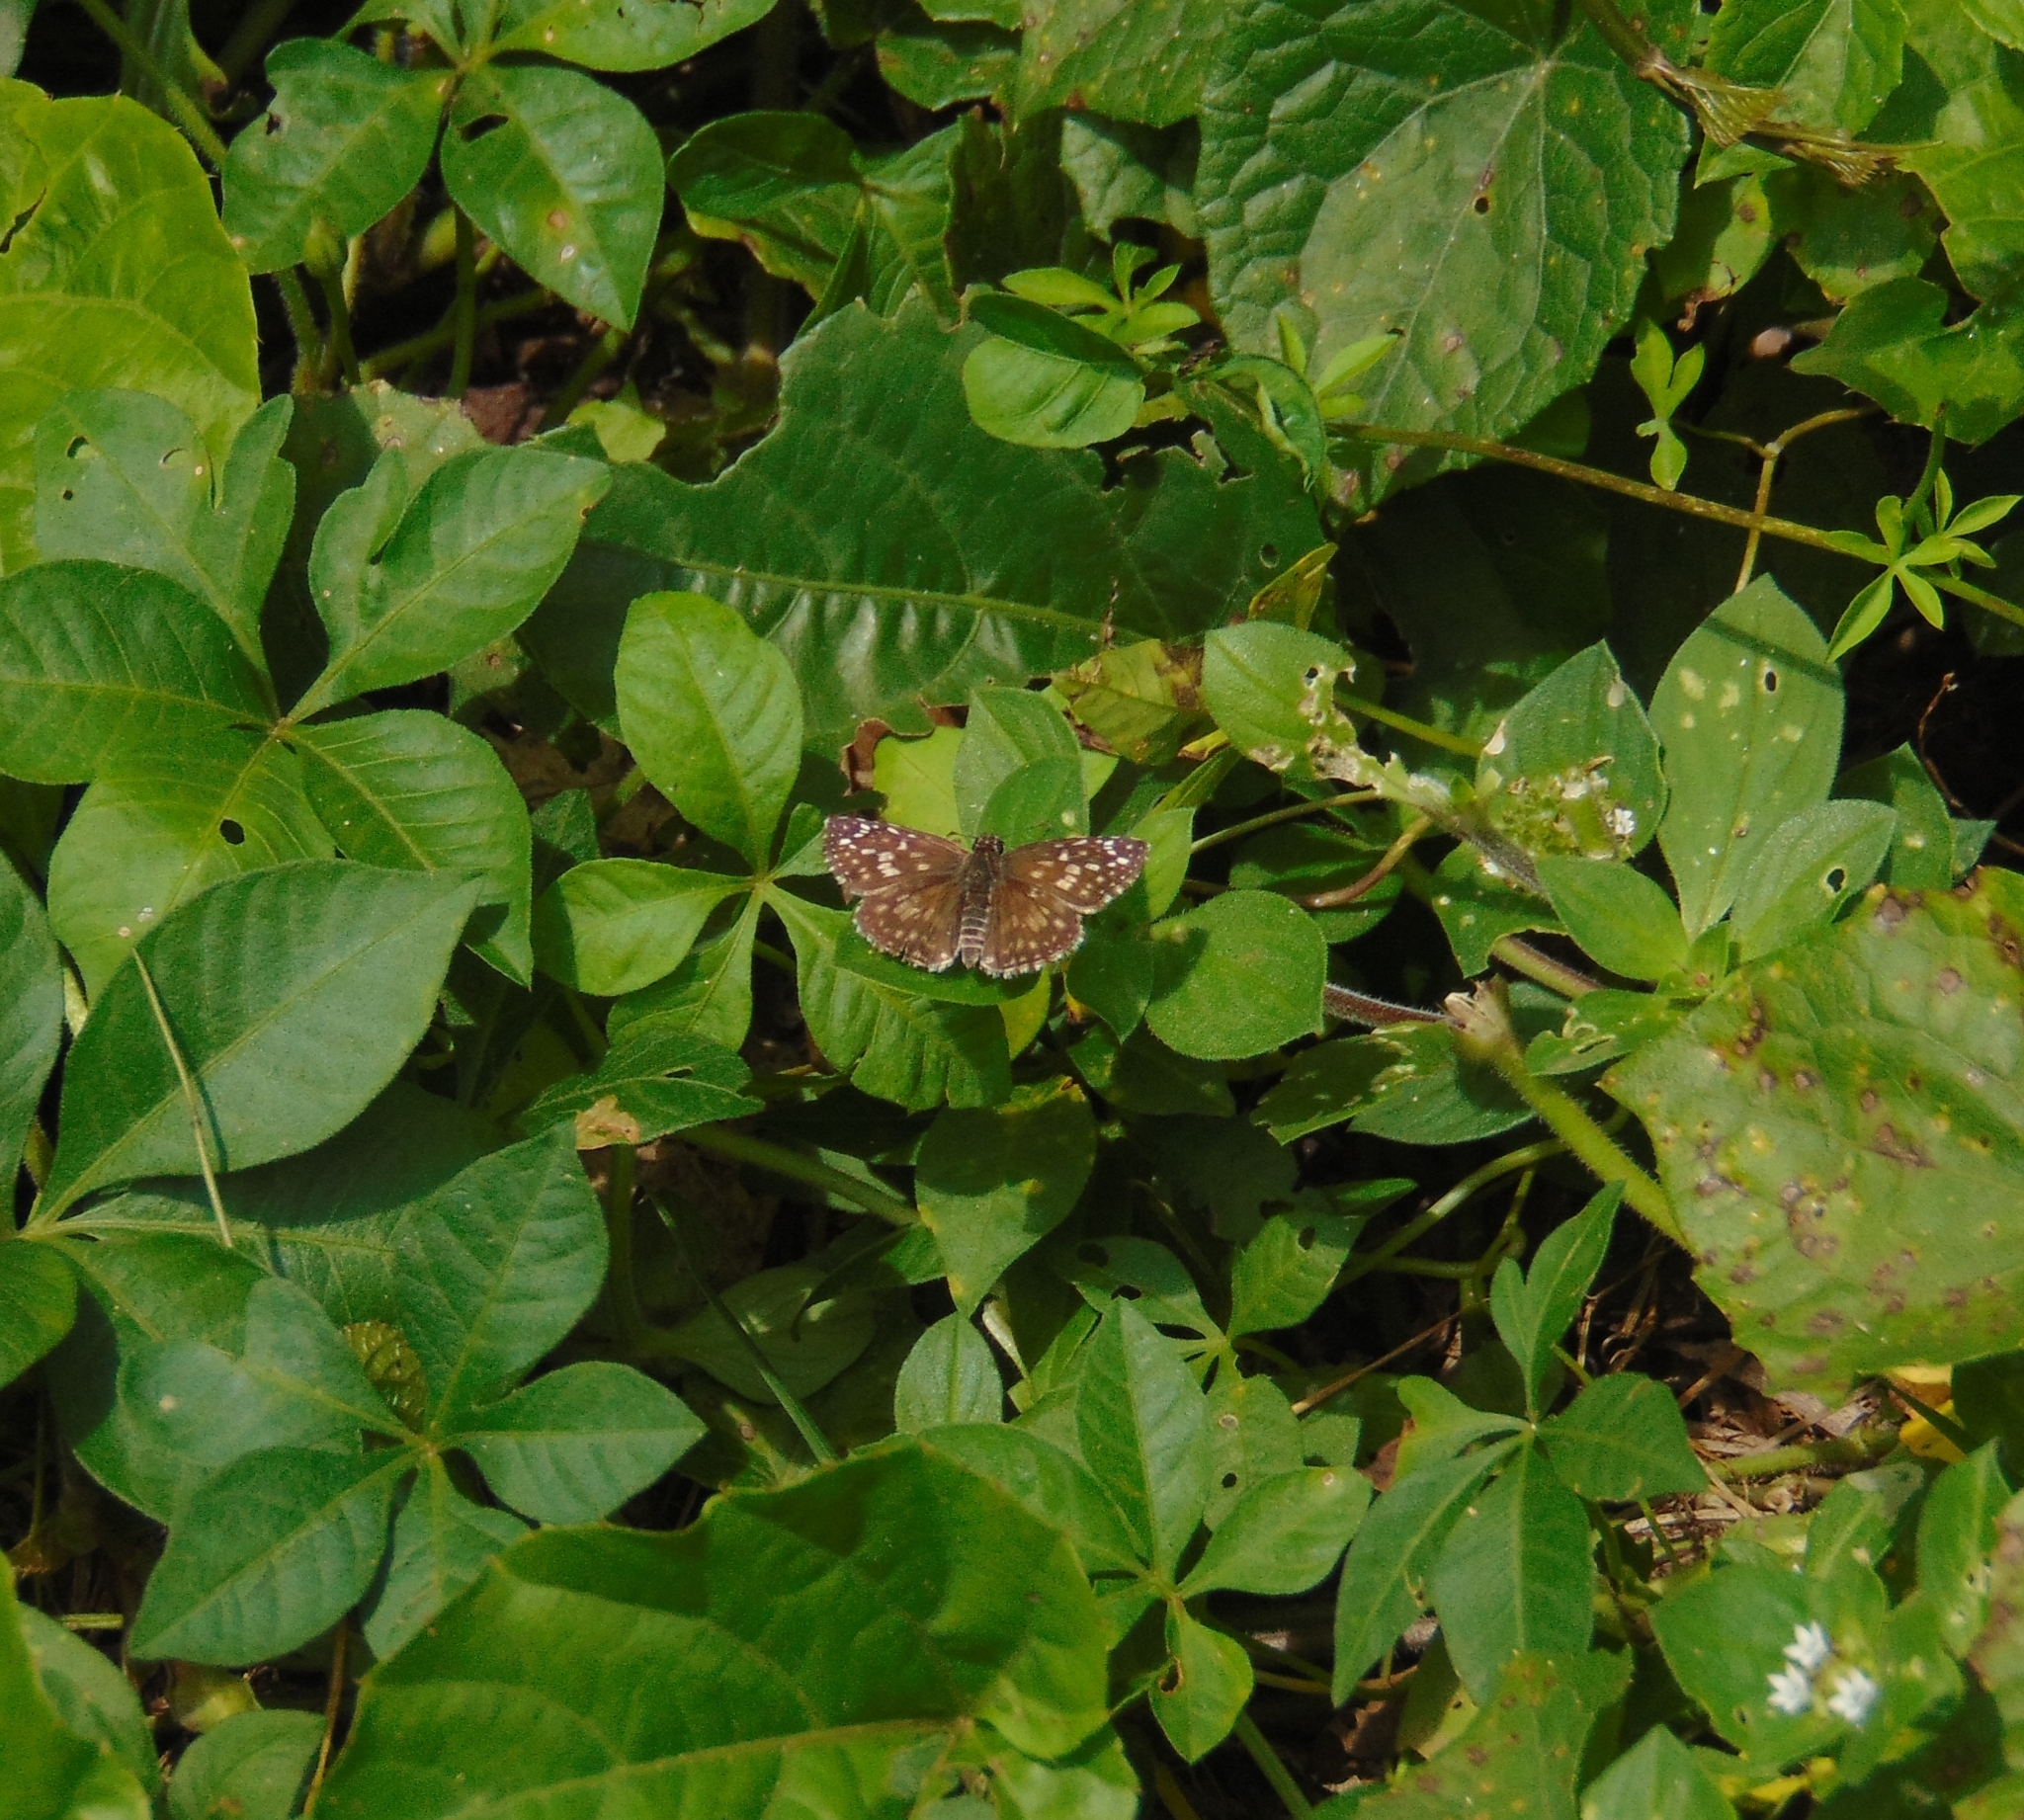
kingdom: Animalia
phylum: Arthropoda
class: Insecta
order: Lepidoptera
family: Hesperiidae
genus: Pyrgus
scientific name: Pyrgus oileus
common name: Tropical checkered-skipper
